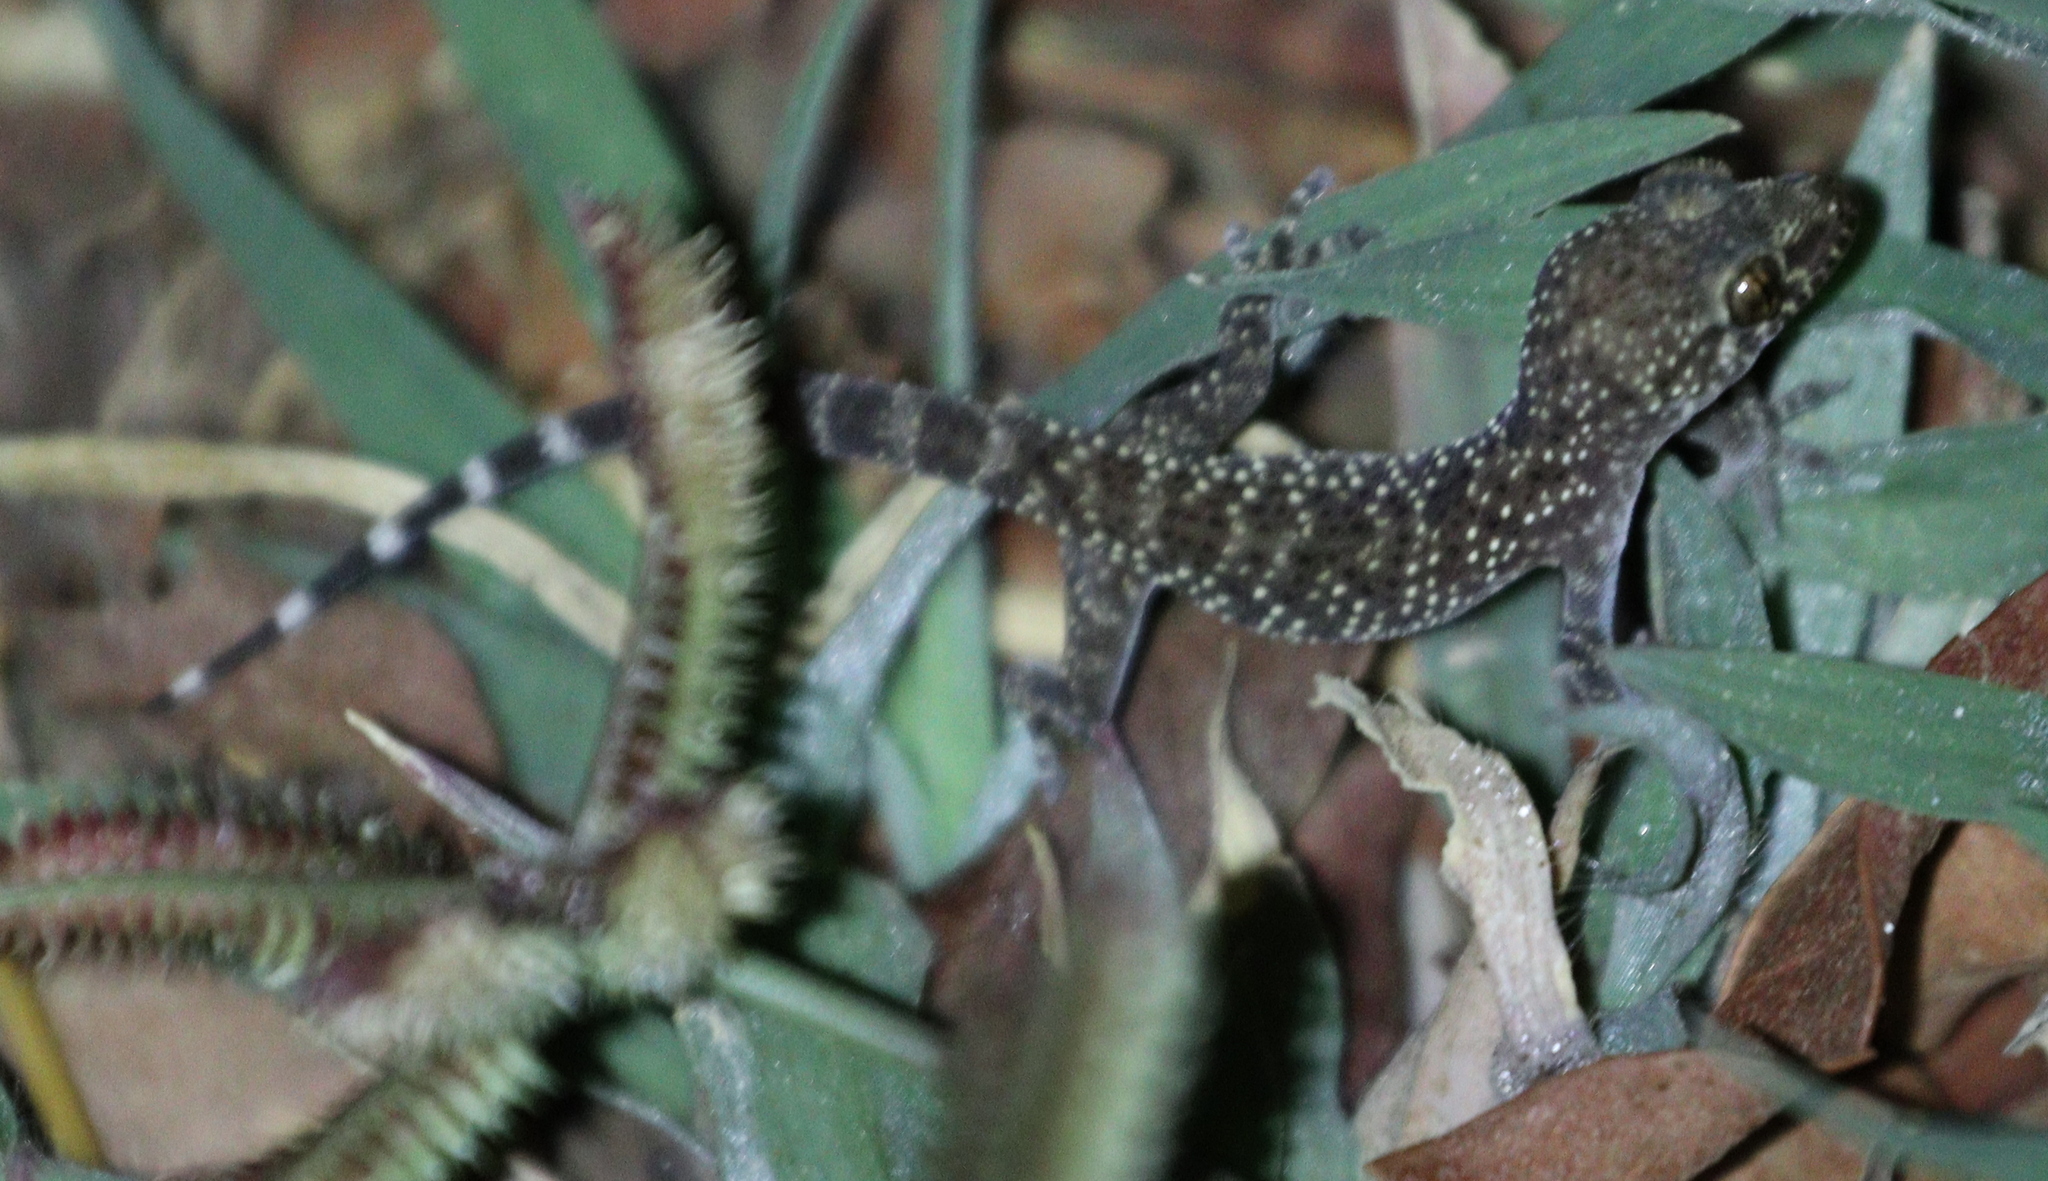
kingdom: Animalia
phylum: Chordata
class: Squamata
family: Gekkonidae
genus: Hemidactylus
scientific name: Hemidactylus turcicus
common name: Turkish gecko
